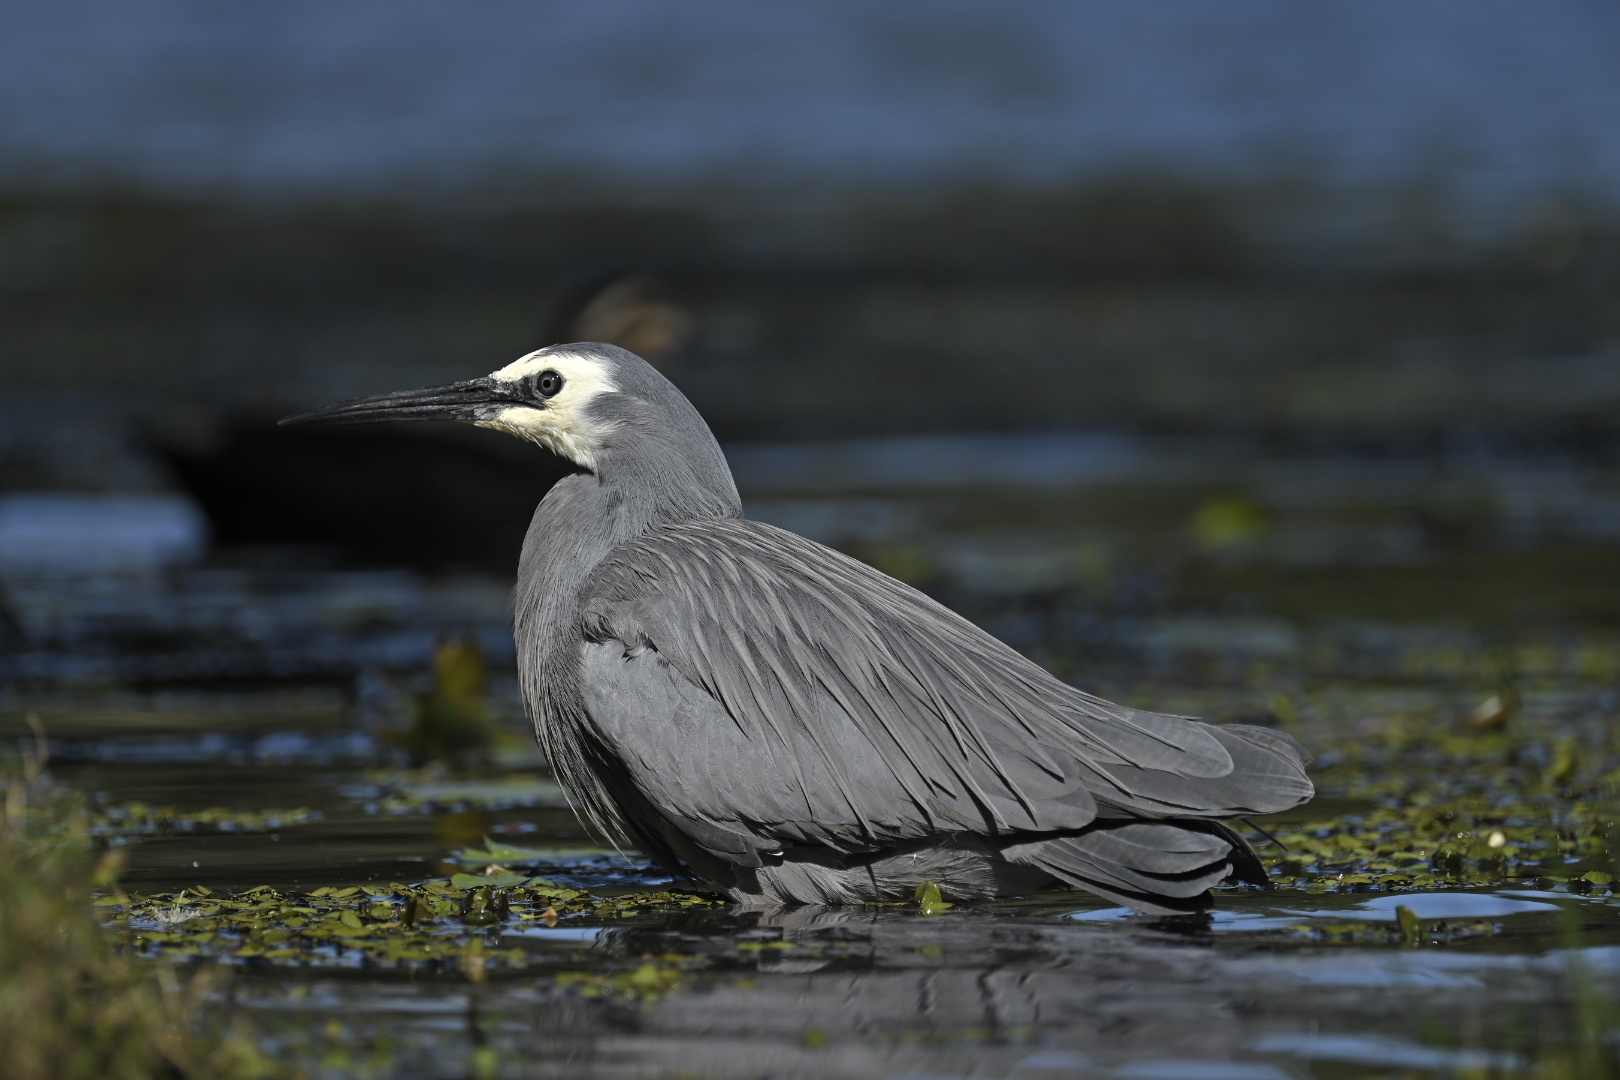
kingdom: Animalia
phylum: Chordata
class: Aves
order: Pelecaniformes
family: Ardeidae
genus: Egretta
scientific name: Egretta novaehollandiae
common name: White-faced heron
